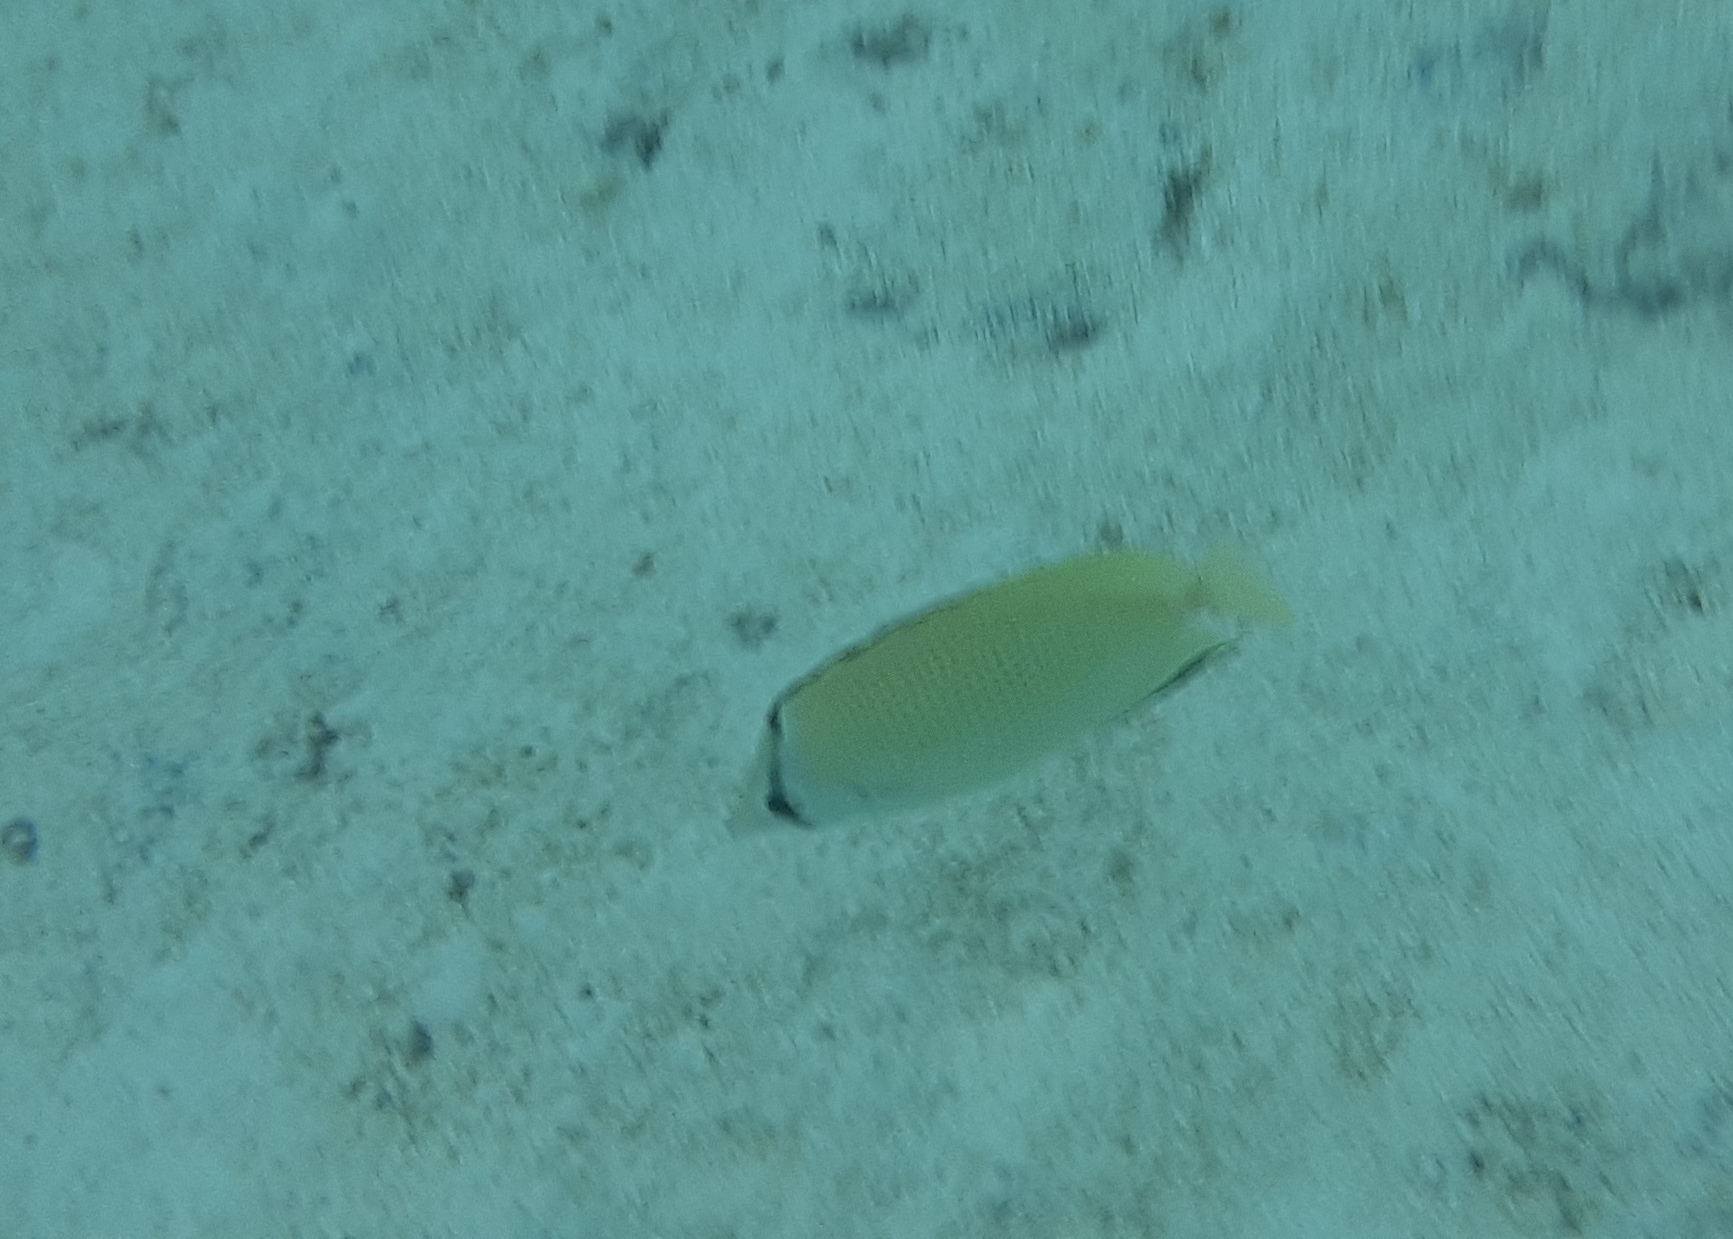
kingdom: Animalia
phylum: Chordata
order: Perciformes
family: Chaetodontidae
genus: Chaetodon
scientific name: Chaetodon citrinellus
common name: Speckled butterflyfish
